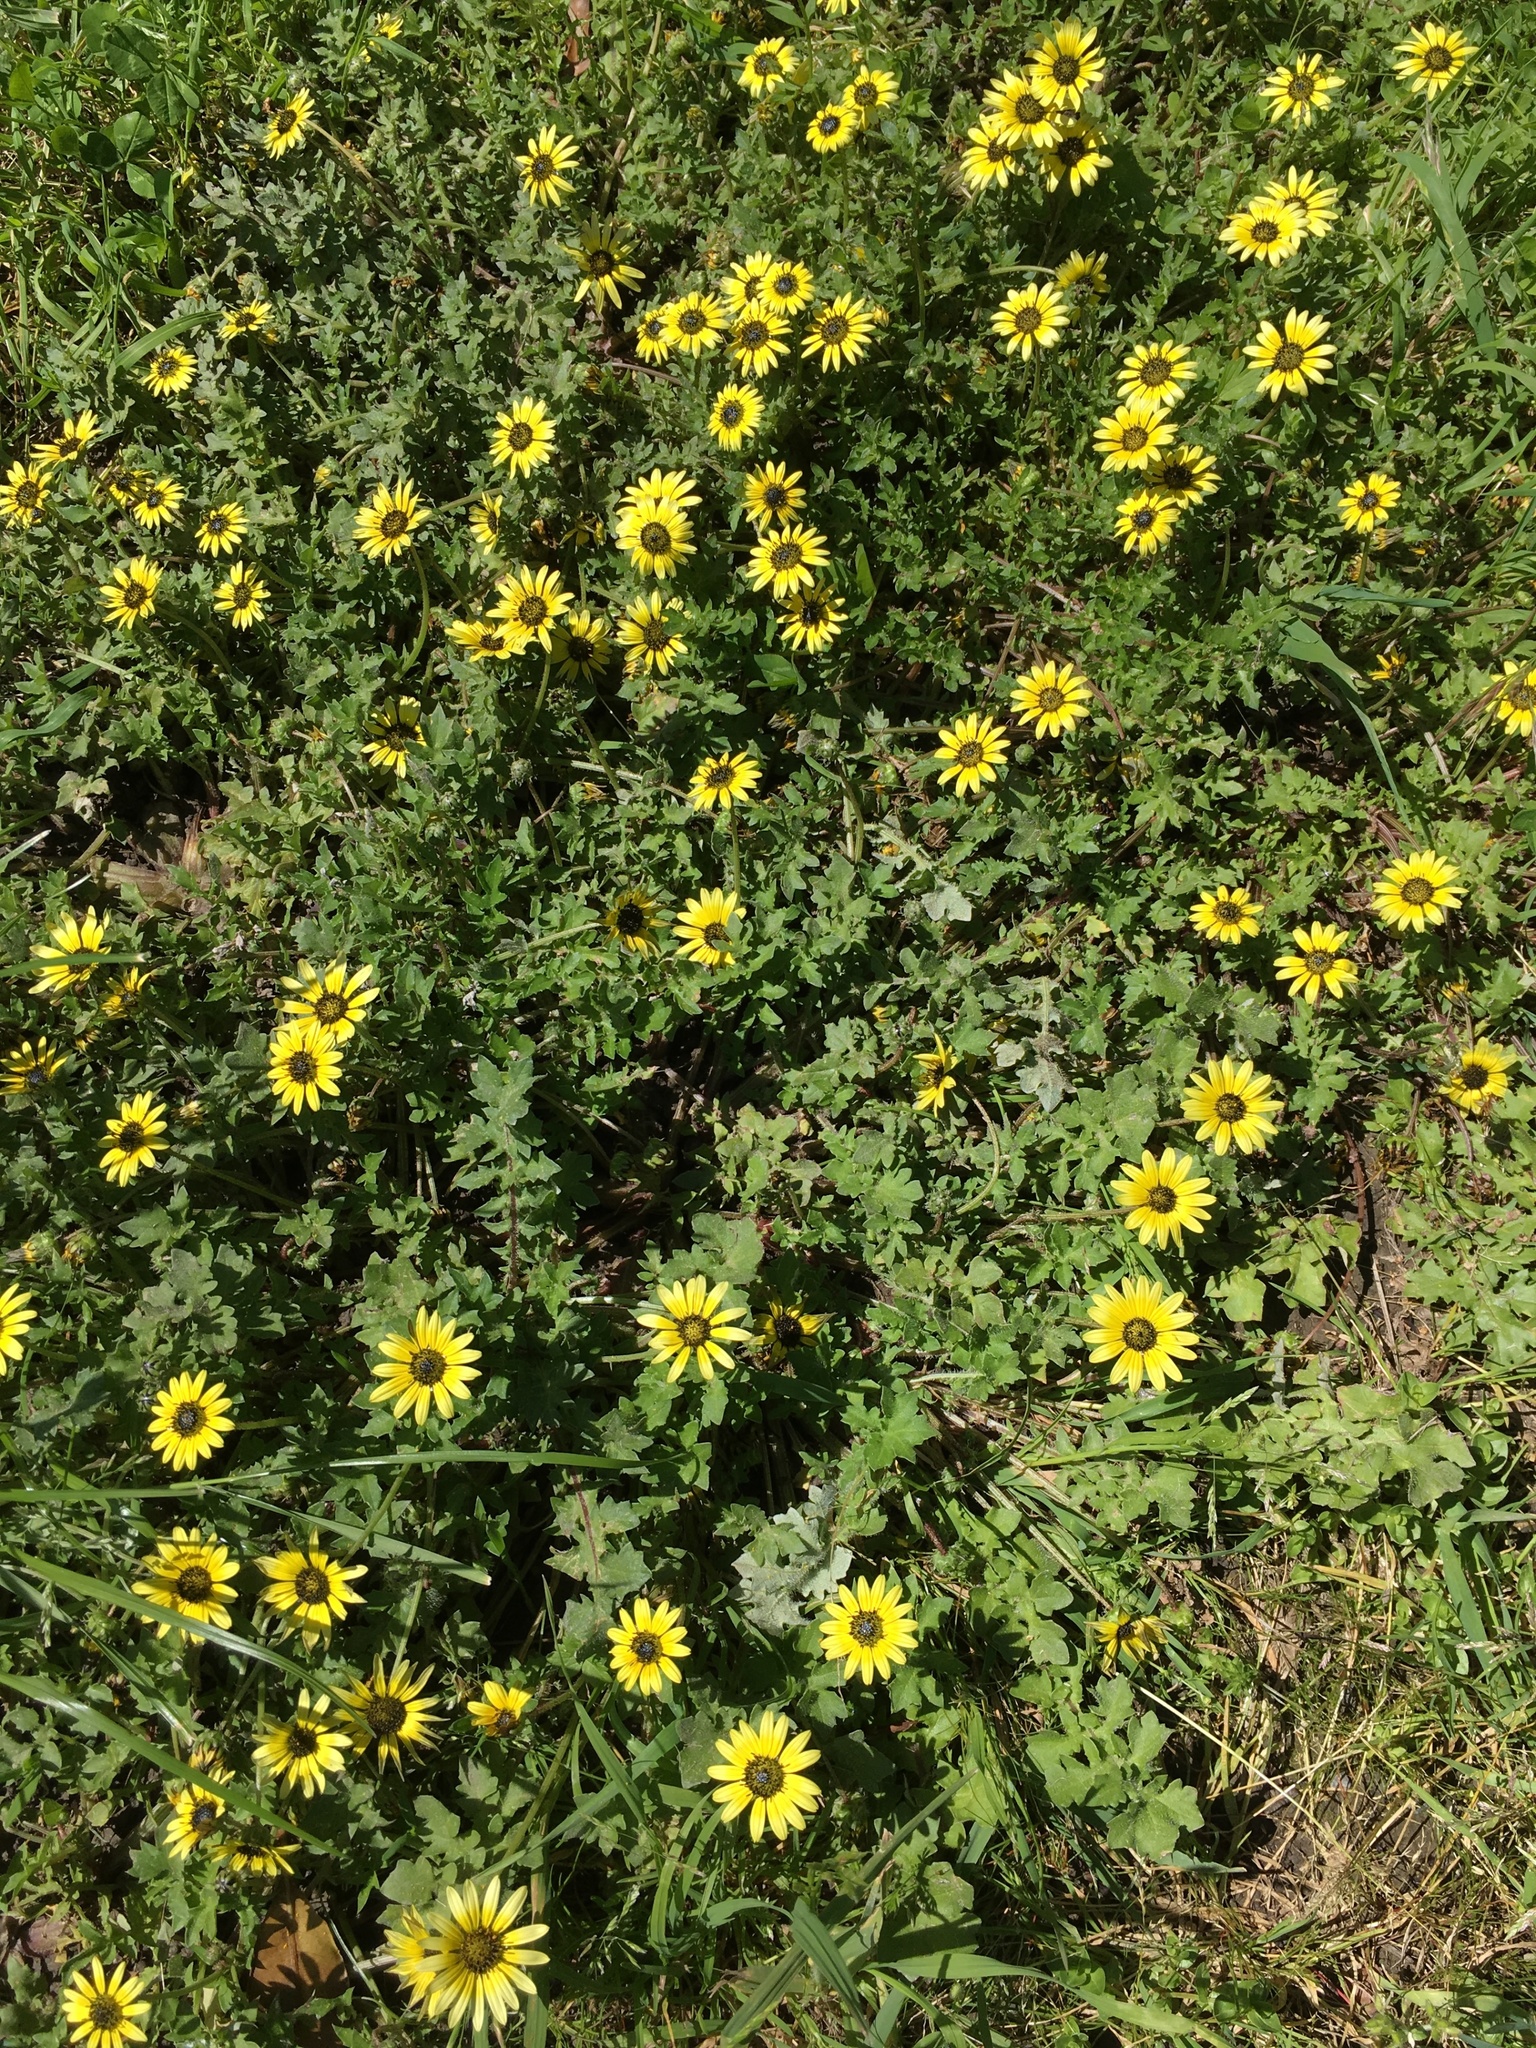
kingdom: Plantae
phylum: Tracheophyta
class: Magnoliopsida
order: Asterales
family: Asteraceae
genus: Arctotheca
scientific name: Arctotheca calendula
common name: Capeweed
